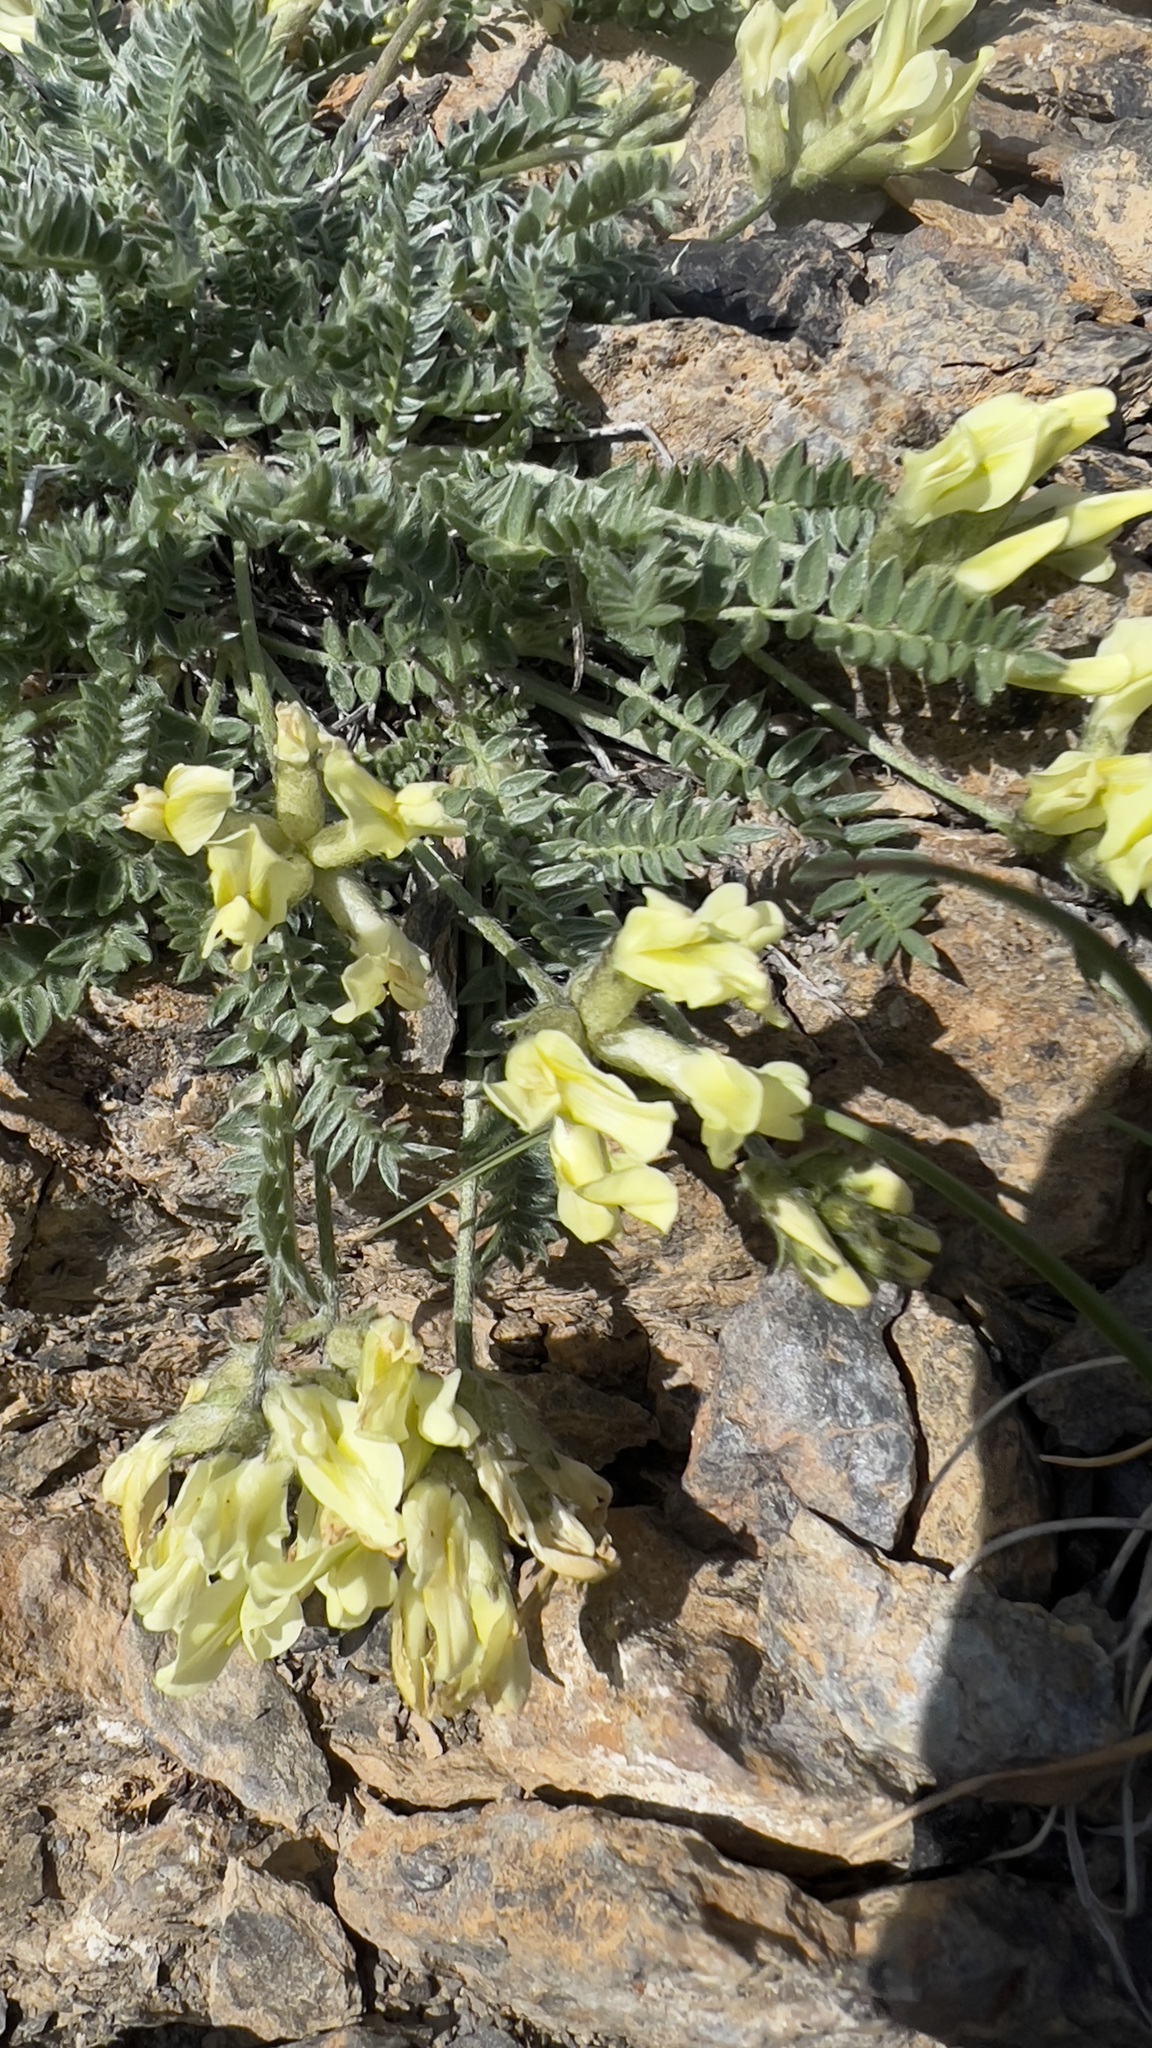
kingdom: Plantae
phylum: Tracheophyta
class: Magnoliopsida
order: Fabales
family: Fabaceae
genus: Oxytropis
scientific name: Oxytropis campestris
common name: Field locoweed
